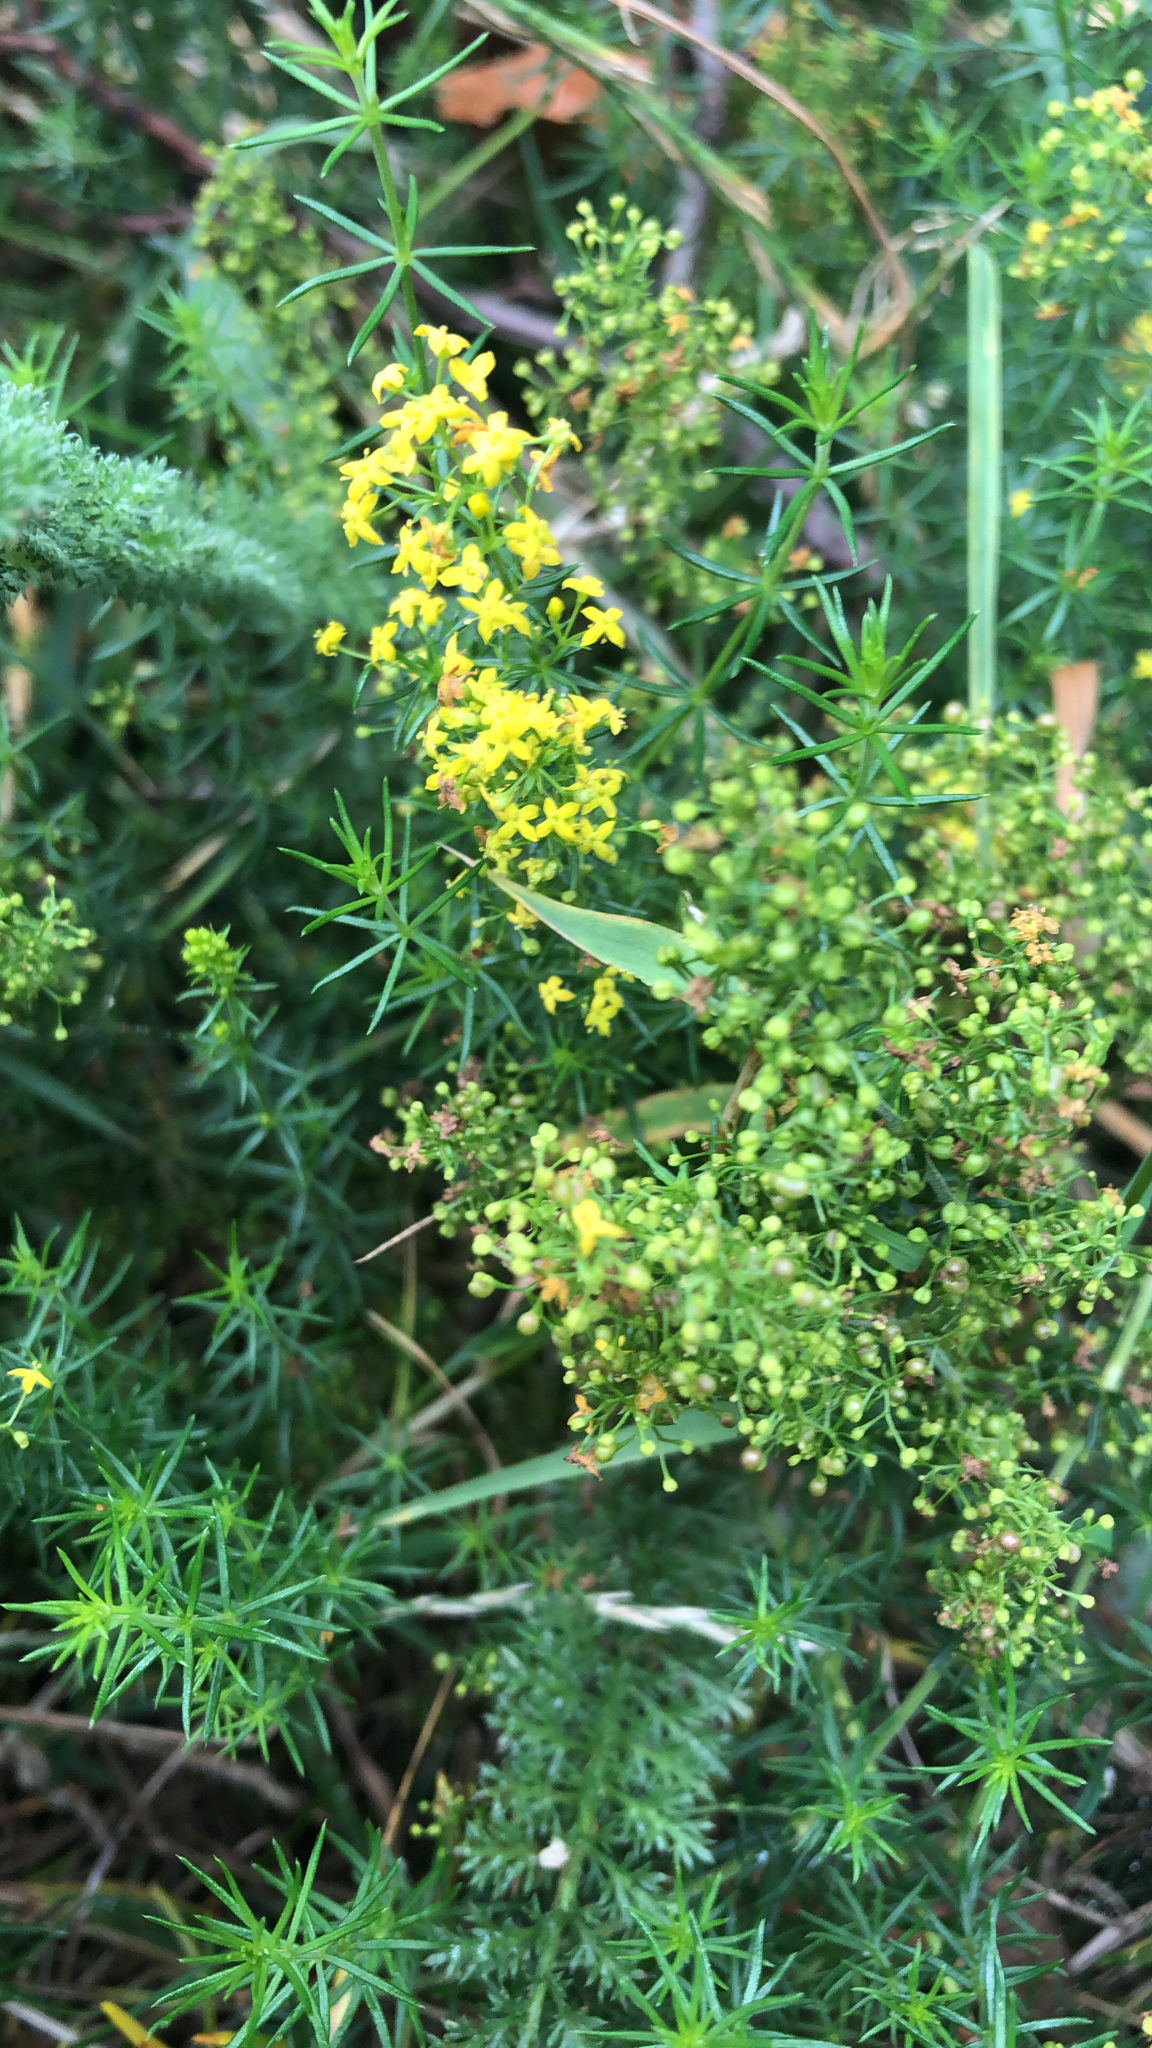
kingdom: Plantae
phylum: Tracheophyta
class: Magnoliopsida
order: Gentianales
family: Rubiaceae
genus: Galium
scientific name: Galium verum
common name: Lady's bedstraw
